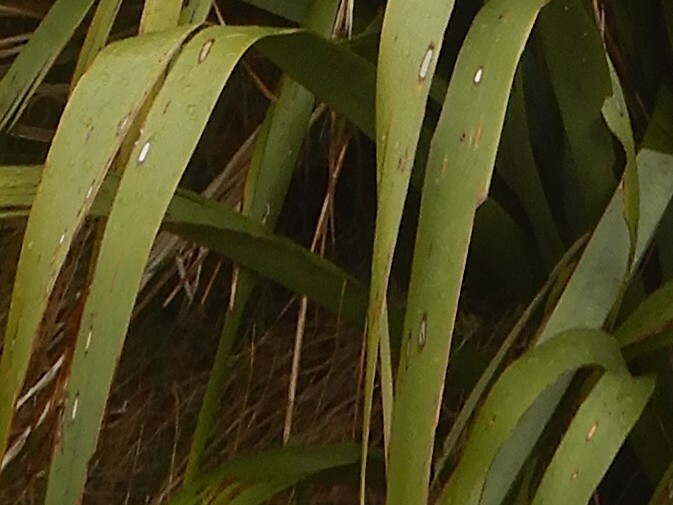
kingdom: Animalia
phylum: Arthropoda
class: Insecta
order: Lepidoptera
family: Geometridae
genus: Orthoclydon
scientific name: Orthoclydon praefectata
